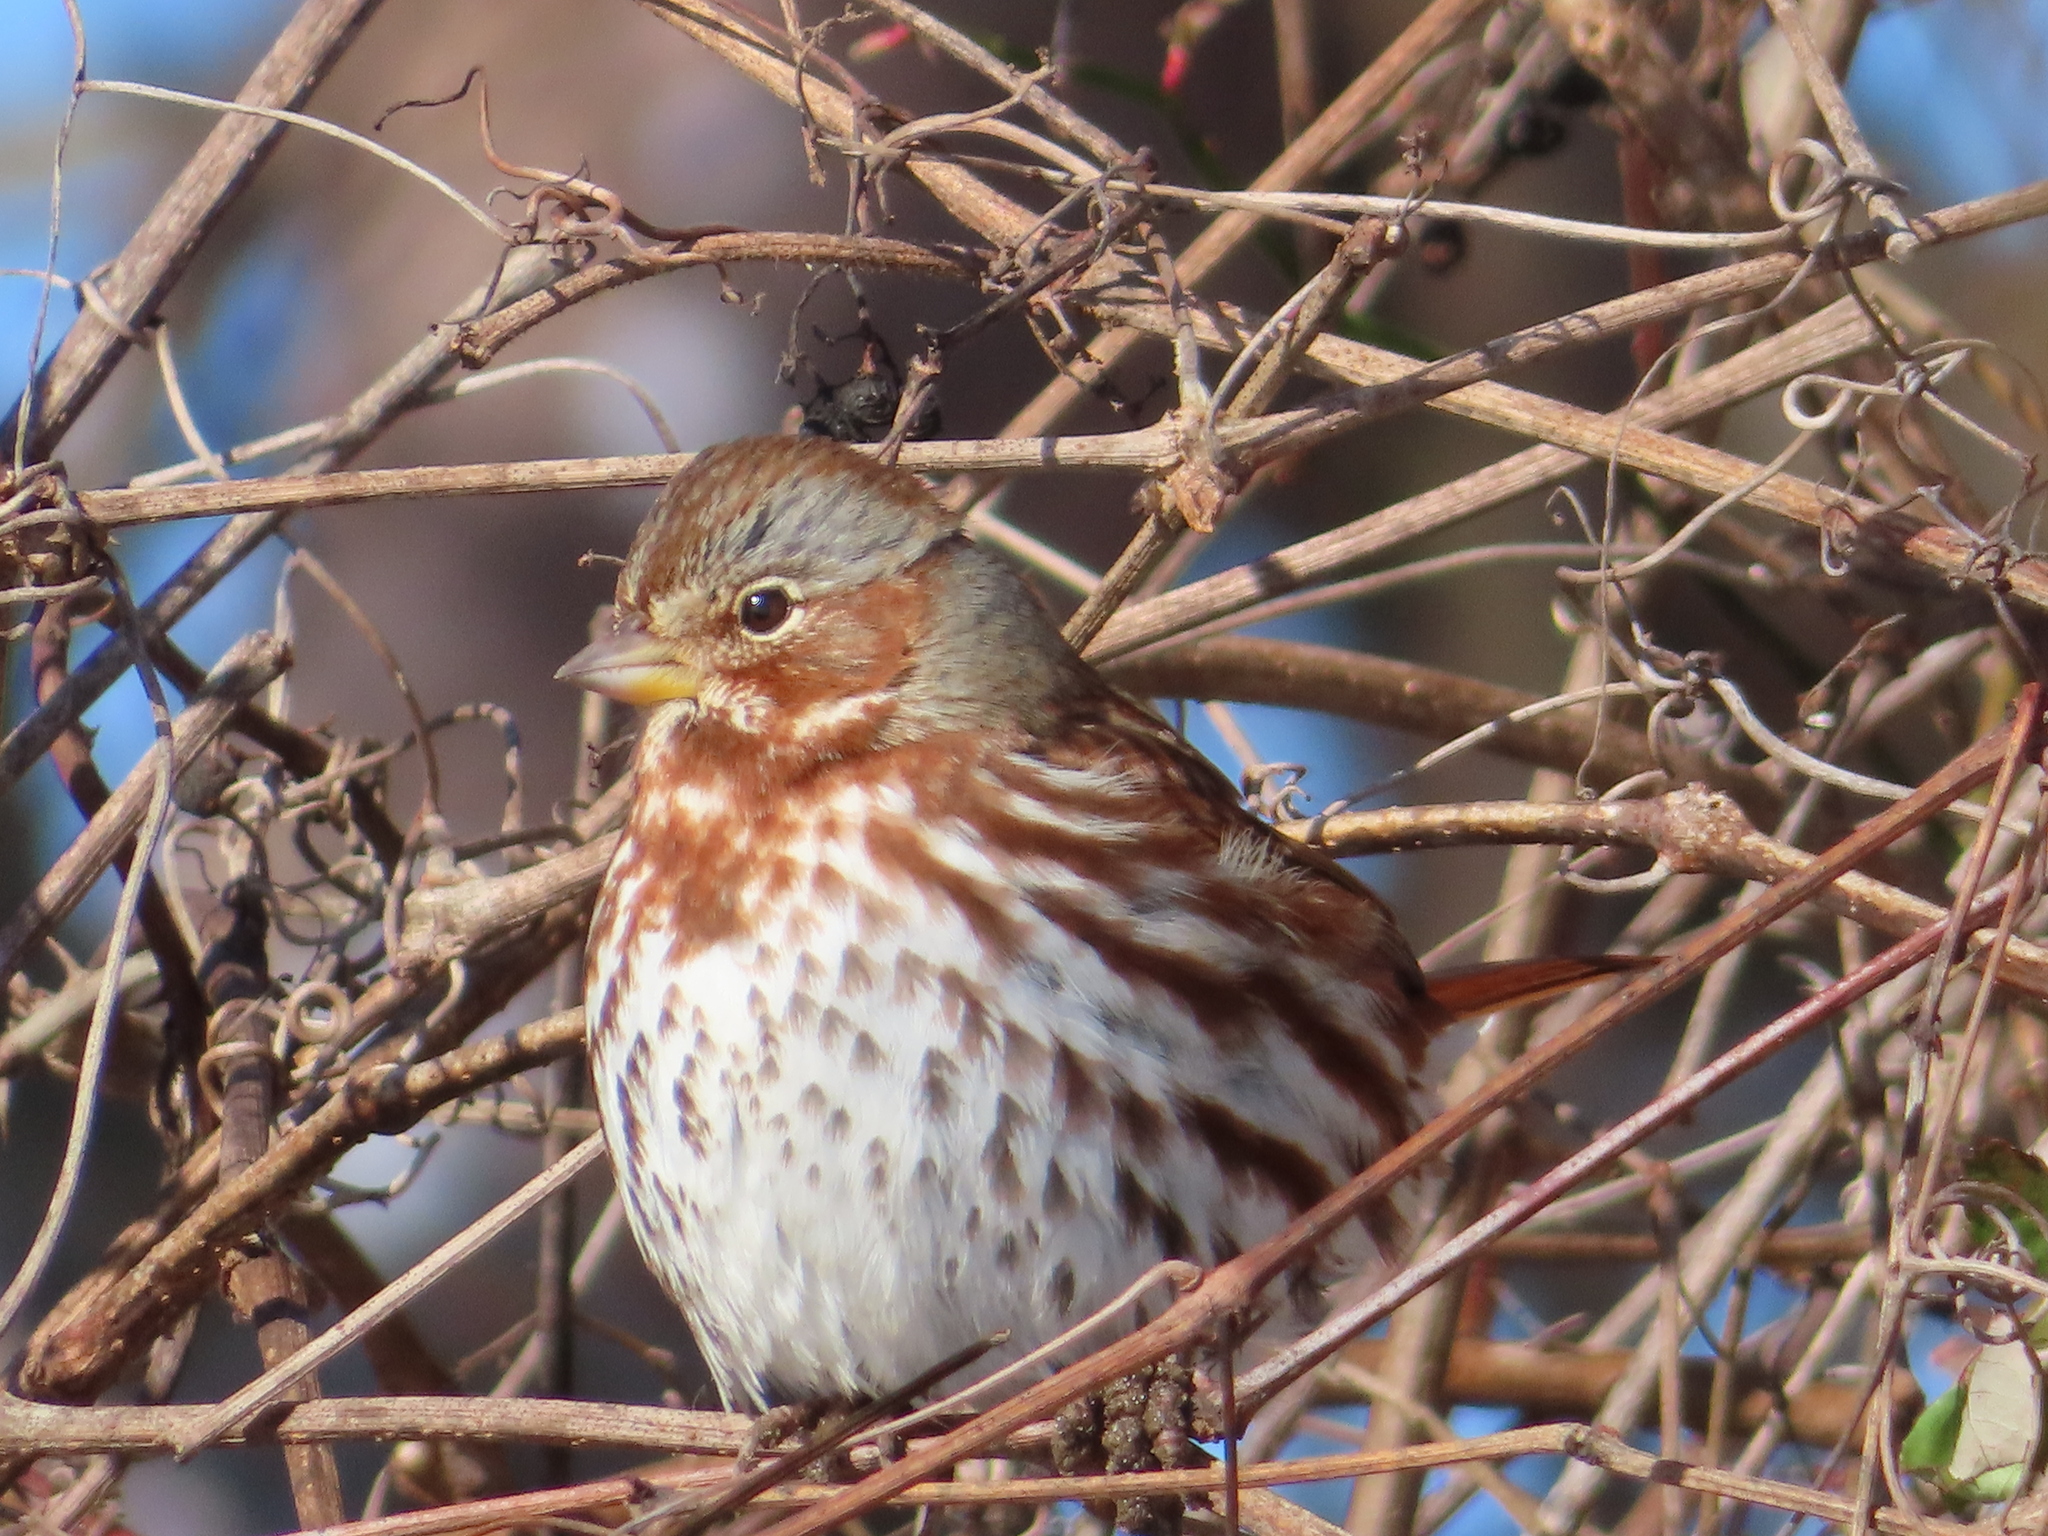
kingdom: Animalia
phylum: Chordata
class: Aves
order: Passeriformes
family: Passerellidae
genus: Passerella
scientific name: Passerella iliaca
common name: Fox sparrow
